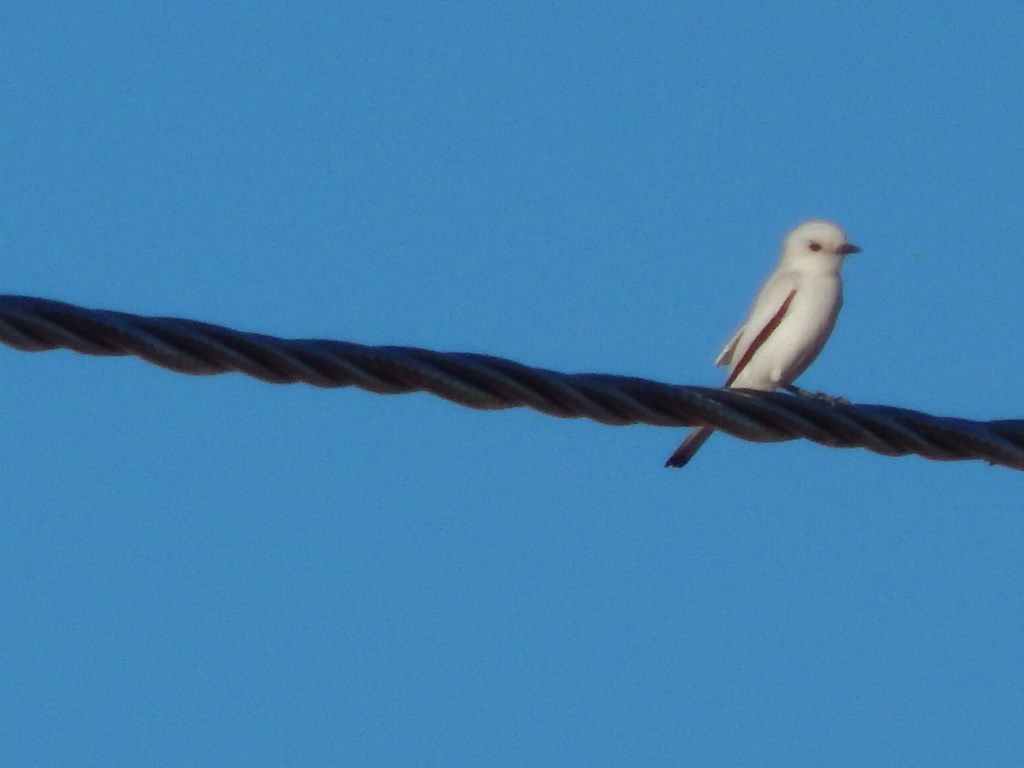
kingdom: Animalia
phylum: Chordata
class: Aves
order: Passeriformes
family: Tyrannidae
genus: Xolmis
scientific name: Xolmis irupero
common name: White monjita
